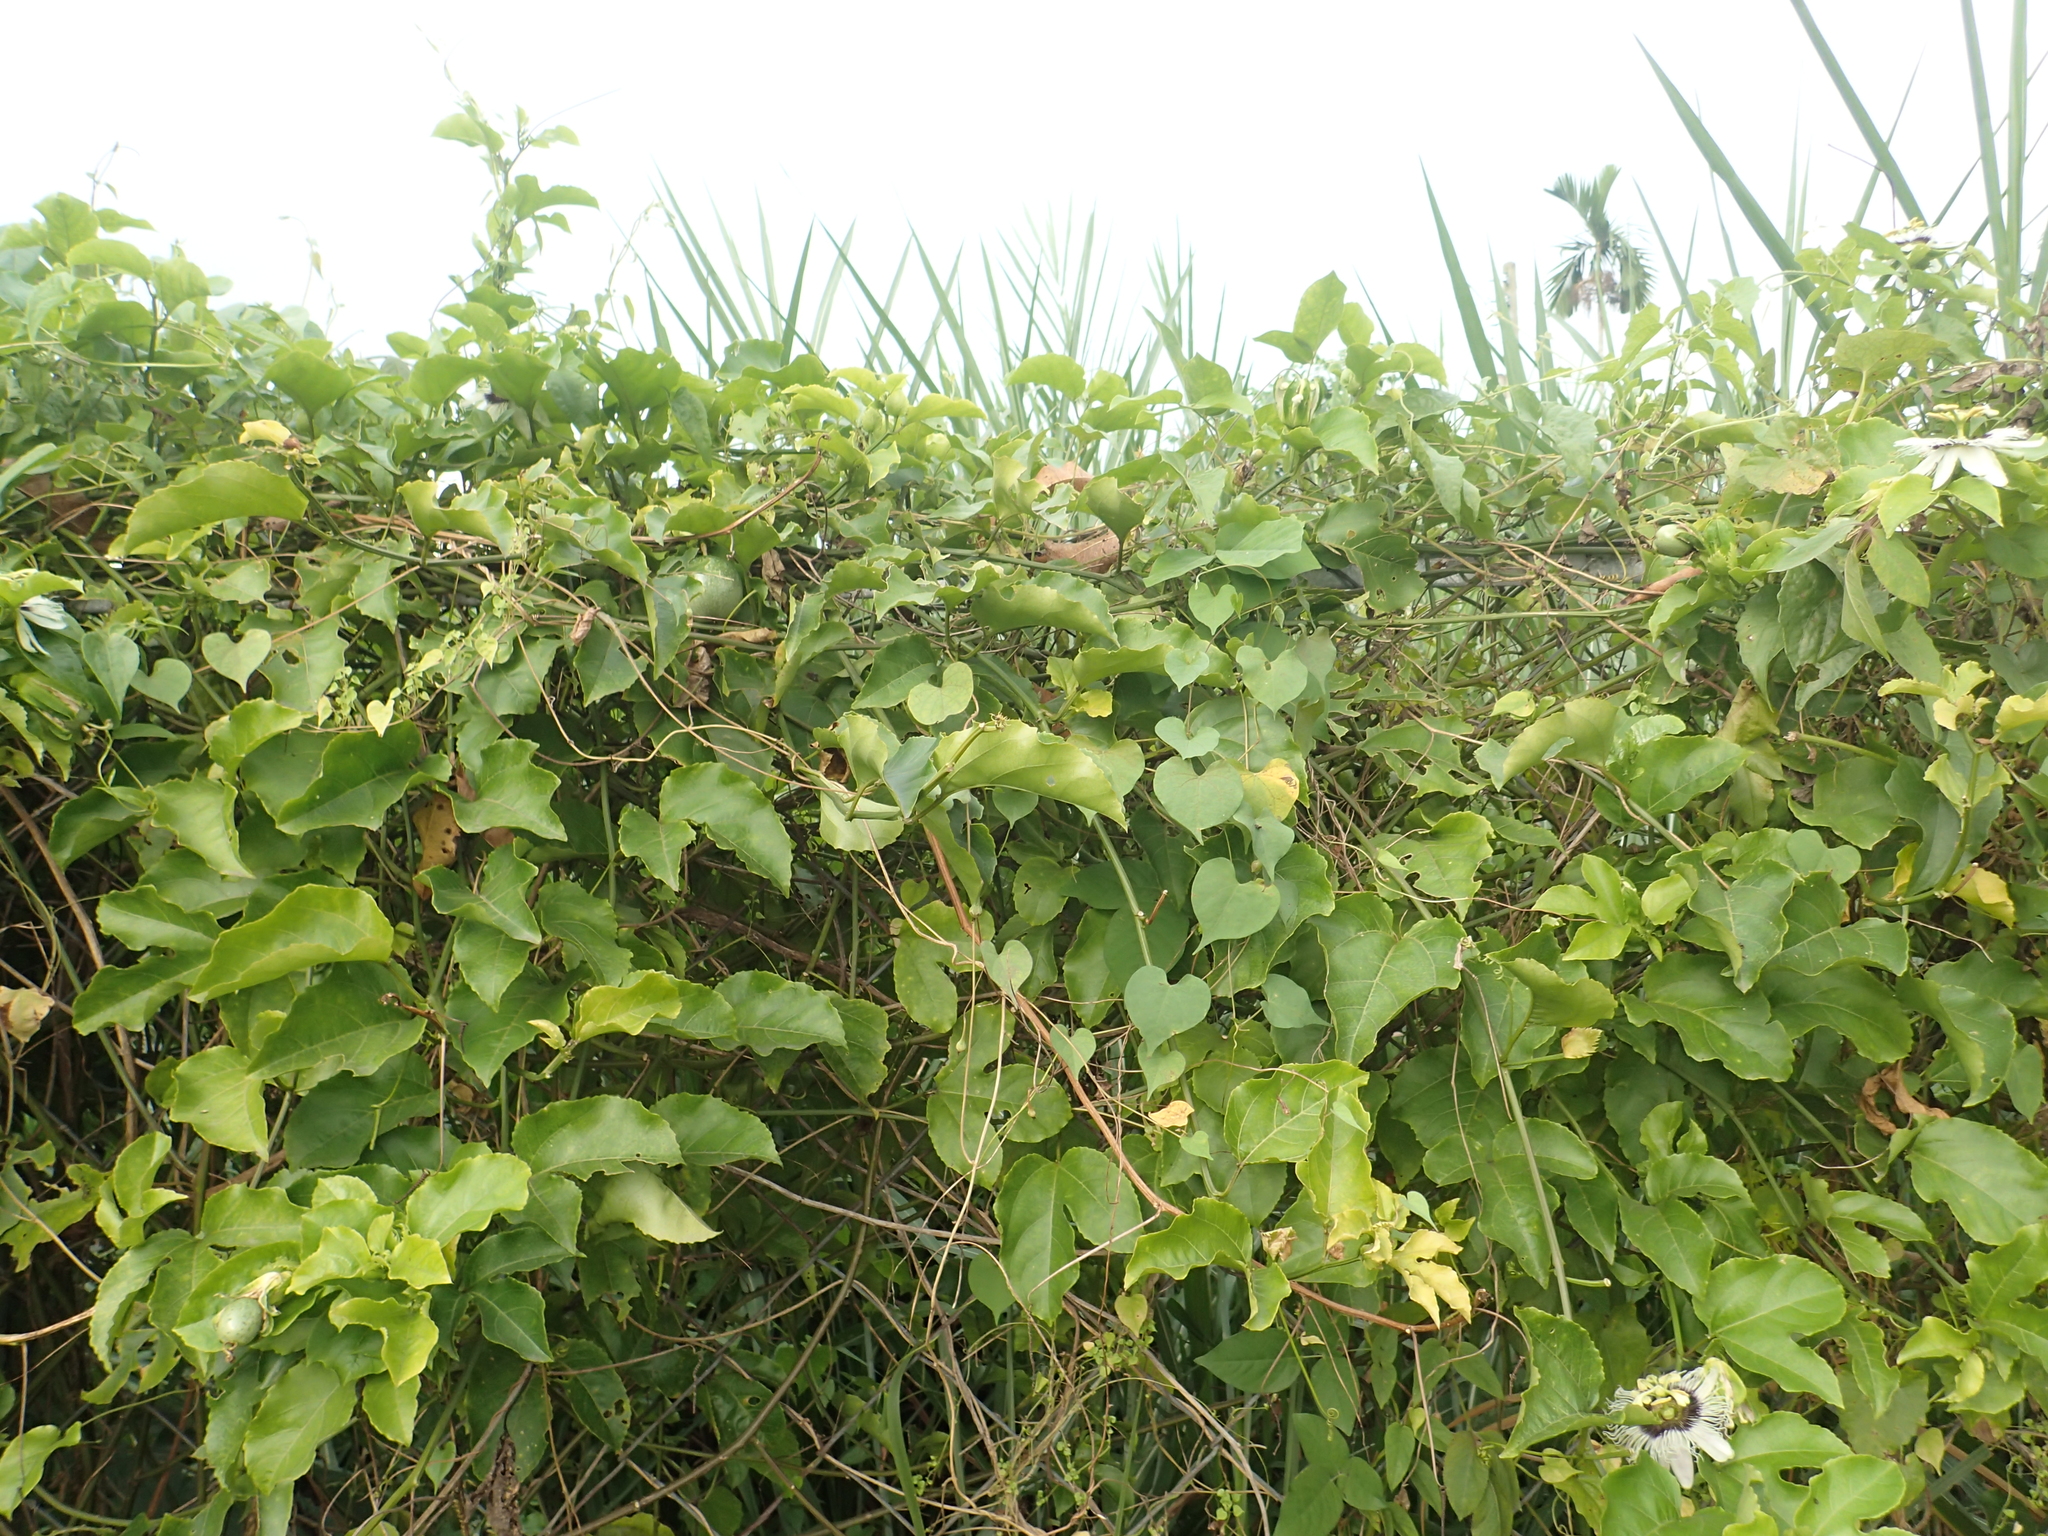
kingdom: Plantae
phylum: Tracheophyta
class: Magnoliopsida
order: Malpighiales
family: Passifloraceae
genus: Passiflora
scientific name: Passiflora edulis
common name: Purple granadilla
